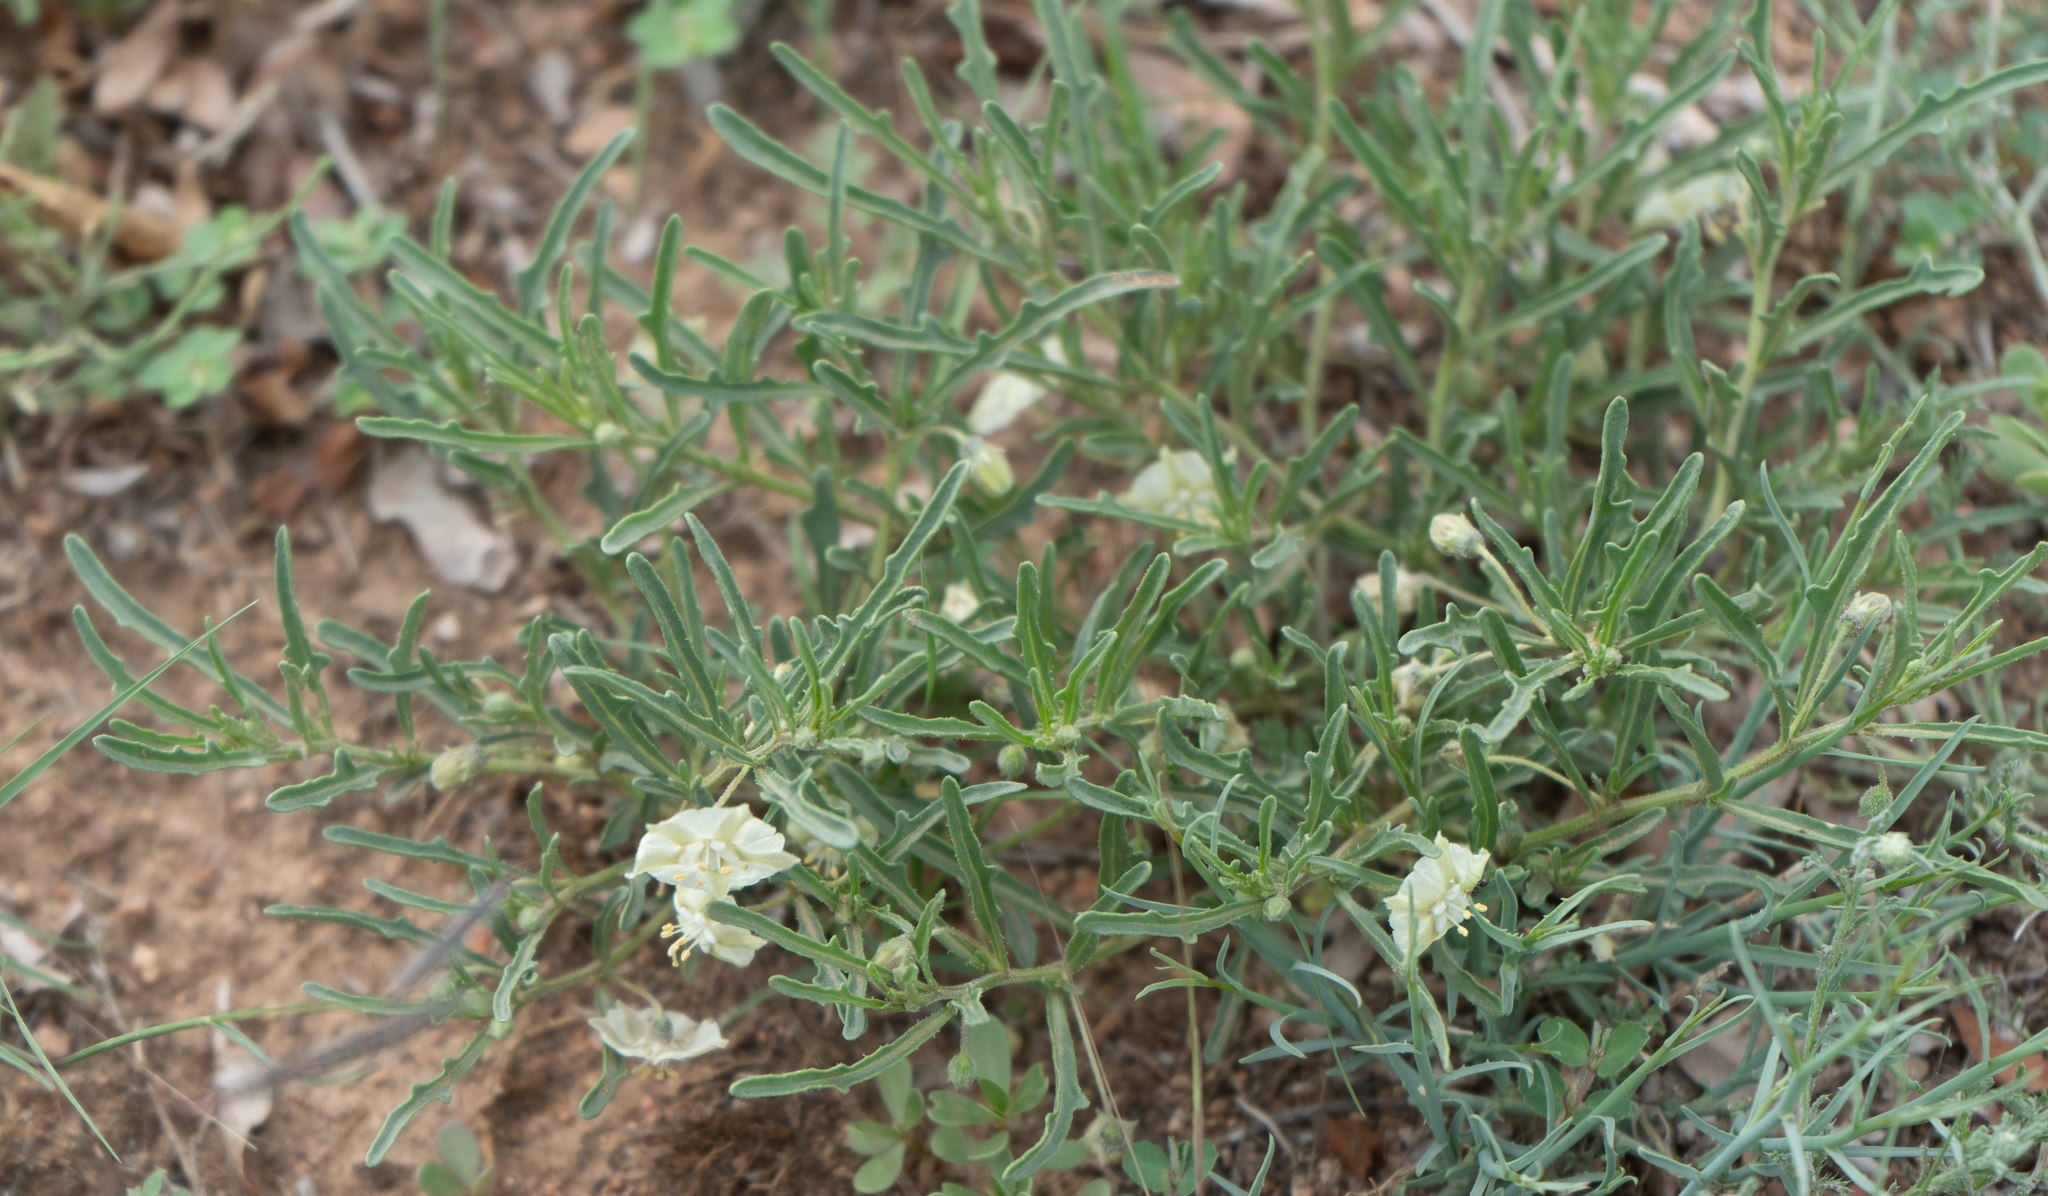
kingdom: Plantae
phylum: Tracheophyta
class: Magnoliopsida
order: Solanales
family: Solanaceae
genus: Chamaesaracha
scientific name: Chamaesaracha coronopus
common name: Smooth chamaesaracha
